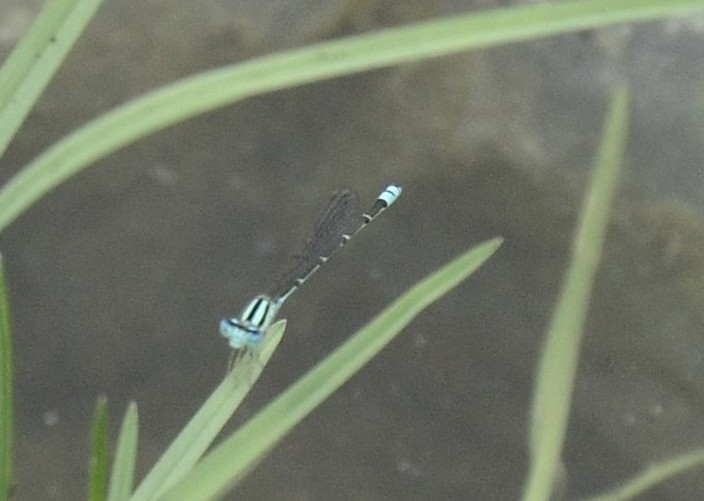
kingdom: Animalia
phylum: Arthropoda
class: Insecta
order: Odonata
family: Coenagrionidae
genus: Pseudagrion
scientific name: Pseudagrion microcephalum
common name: Blue riverdamsel
